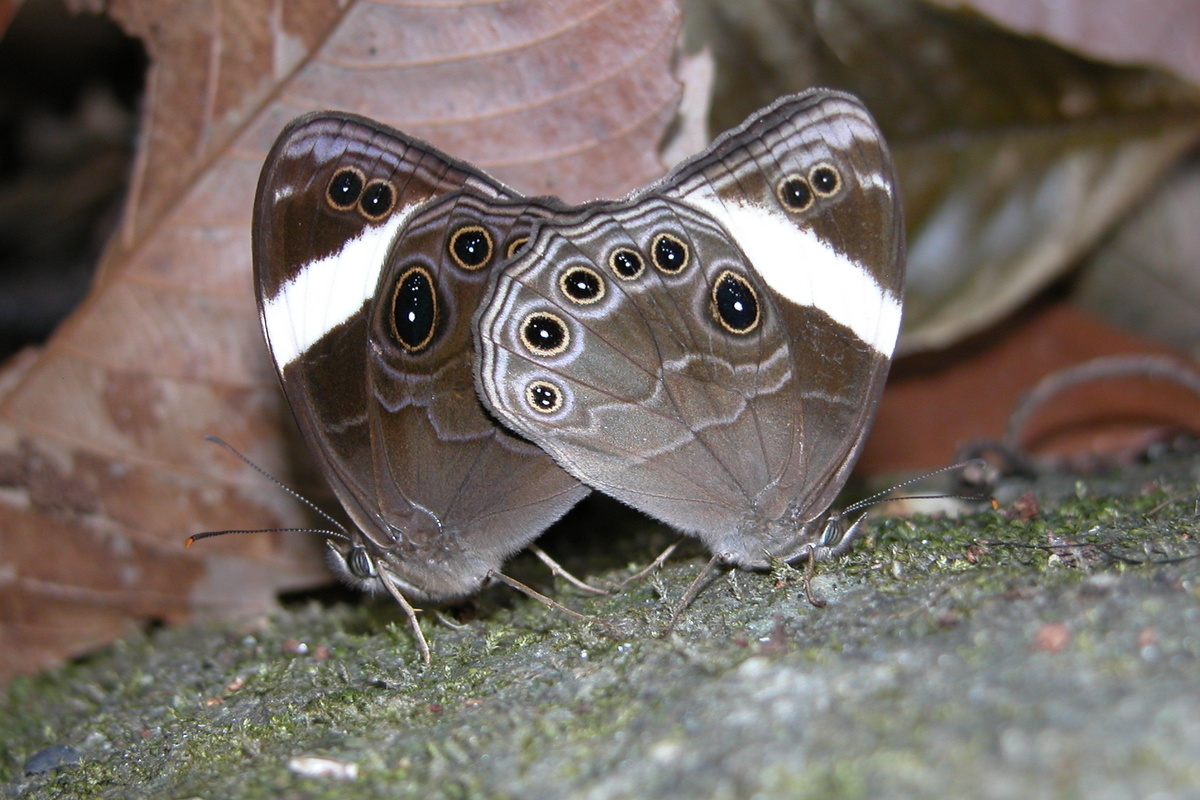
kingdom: Animalia
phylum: Arthropoda
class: Insecta
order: Lepidoptera
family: Nymphalidae
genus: Lethe
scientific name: Lethe verma
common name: Straight-banded treebrown
